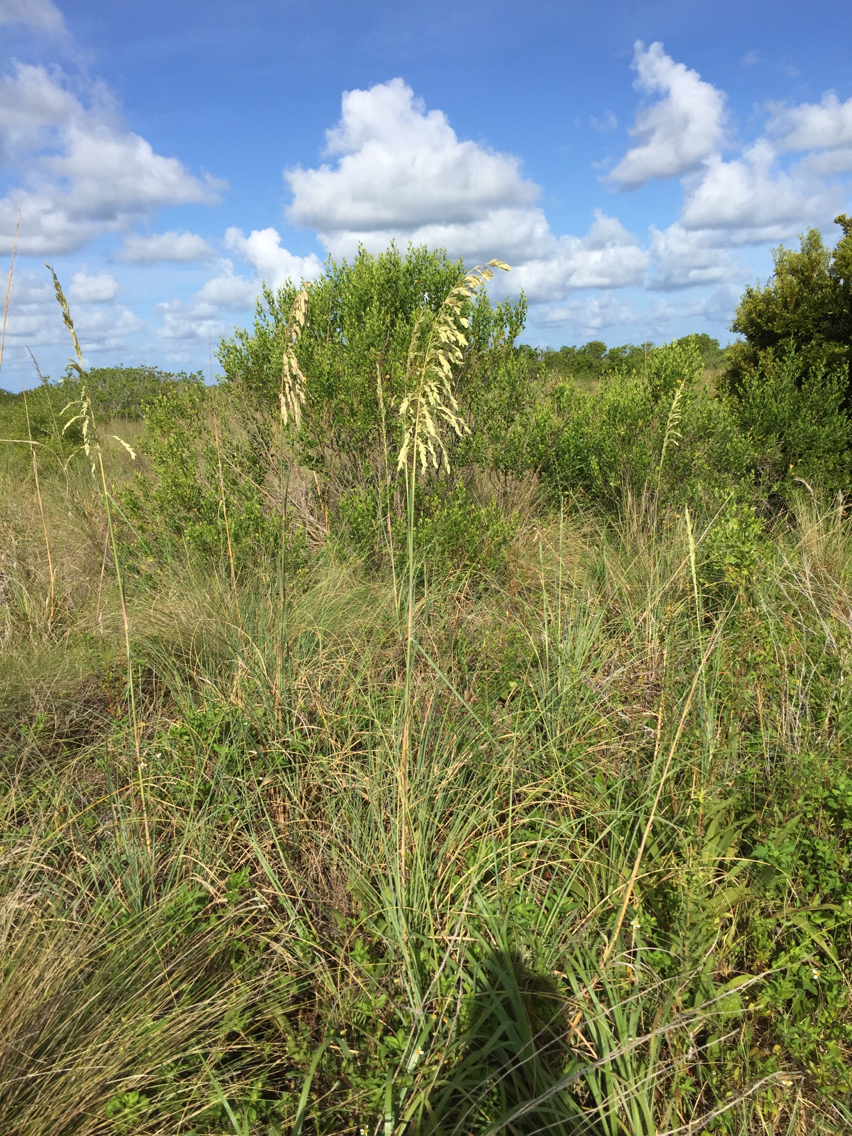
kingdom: Plantae
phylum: Tracheophyta
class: Liliopsida
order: Poales
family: Poaceae
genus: Uniola
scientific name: Uniola paniculata
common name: Seaside-oats
